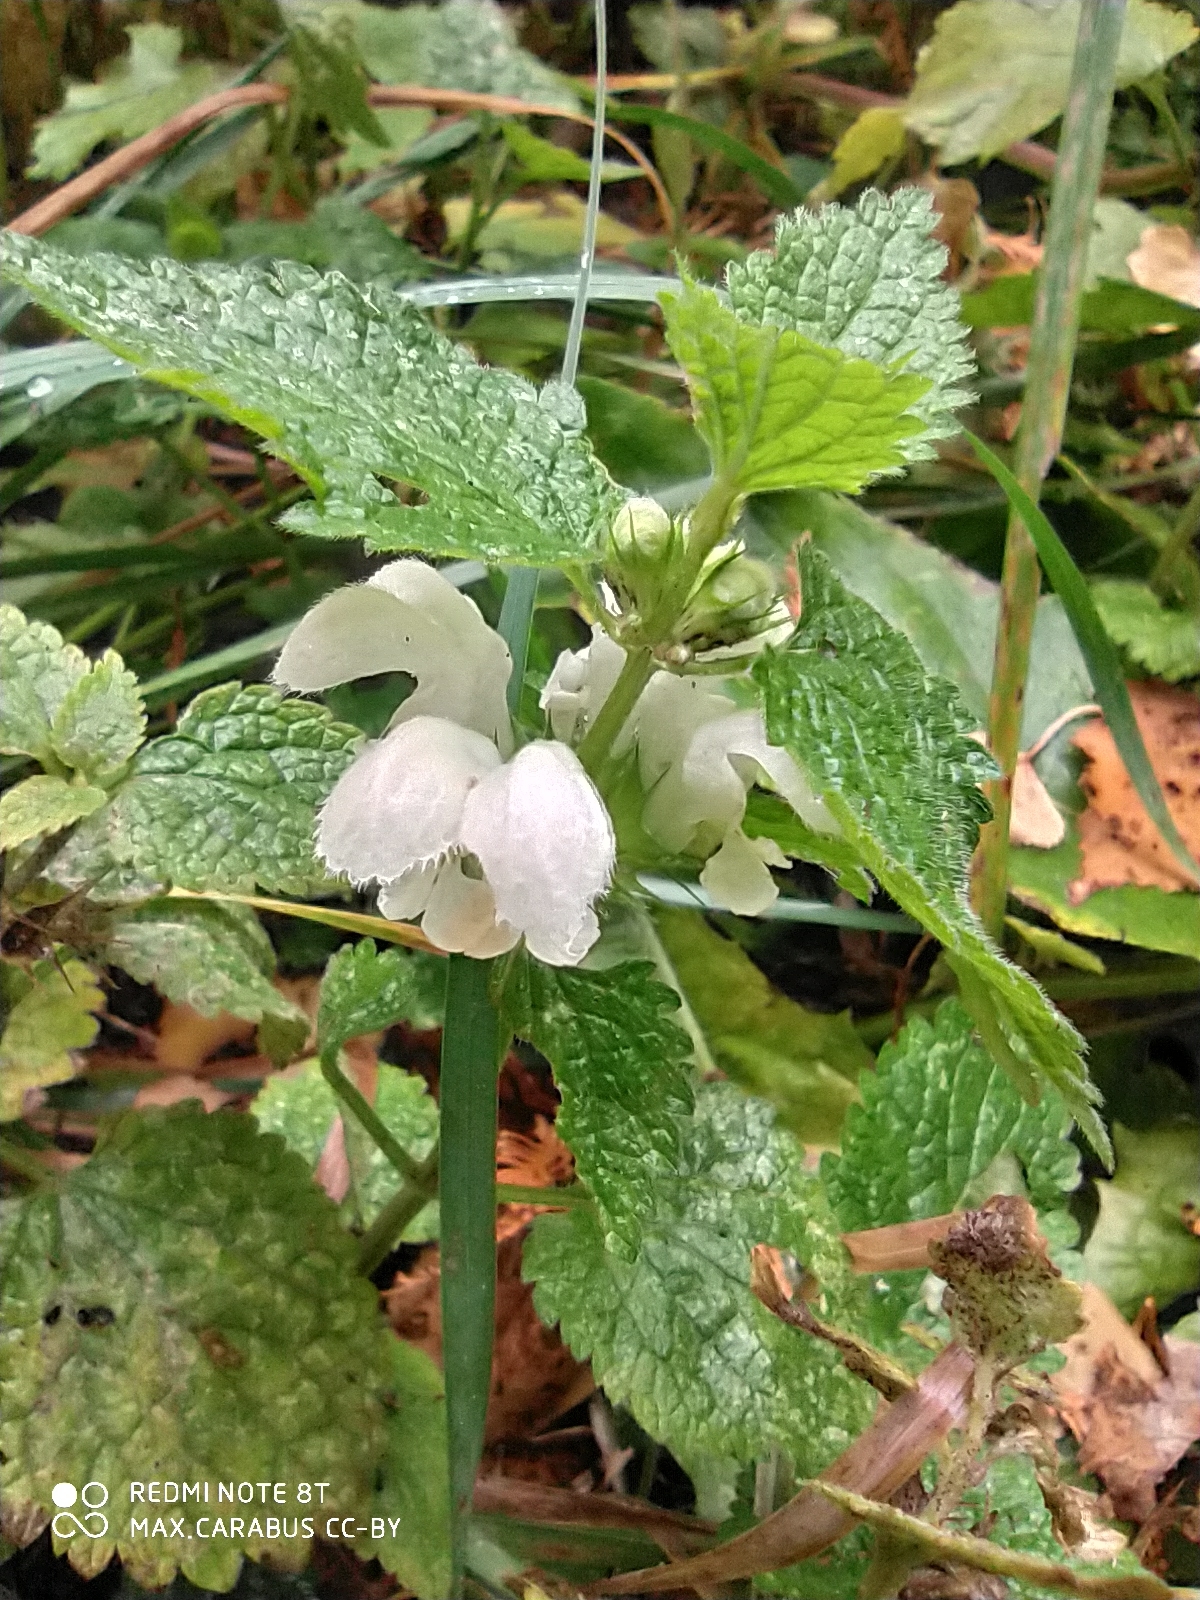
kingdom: Plantae
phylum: Tracheophyta
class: Magnoliopsida
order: Lamiales
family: Lamiaceae
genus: Lamium
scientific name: Lamium album
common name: White dead-nettle
